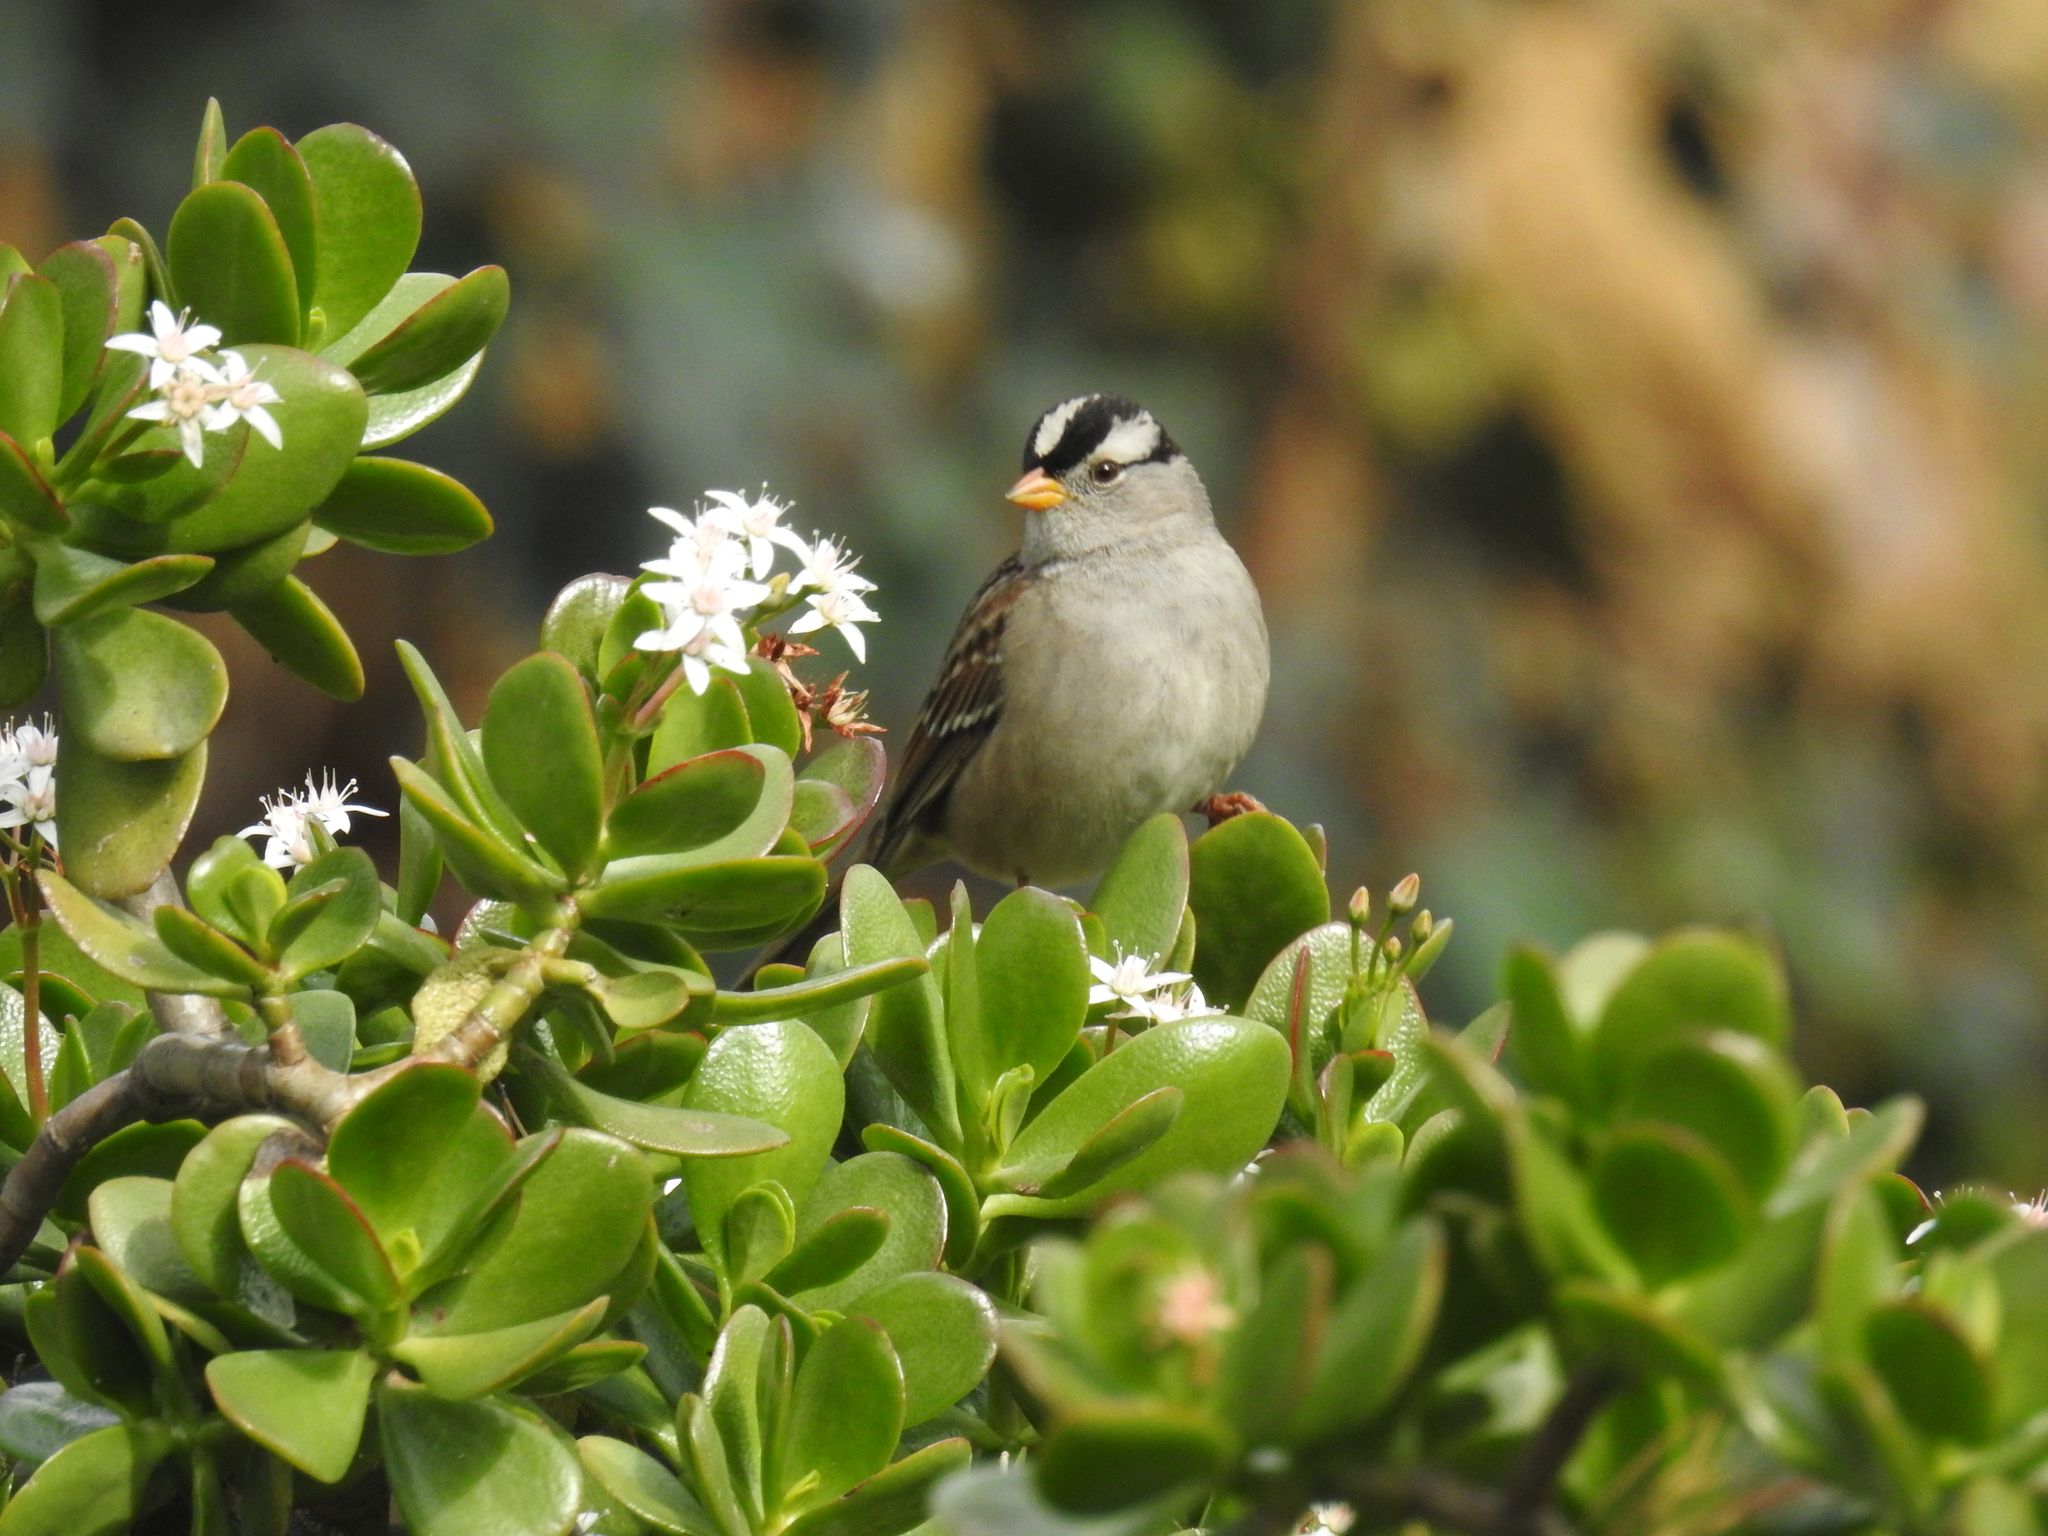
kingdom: Animalia
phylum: Chordata
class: Aves
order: Passeriformes
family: Passerellidae
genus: Zonotrichia
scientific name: Zonotrichia leucophrys
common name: White-crowned sparrow
